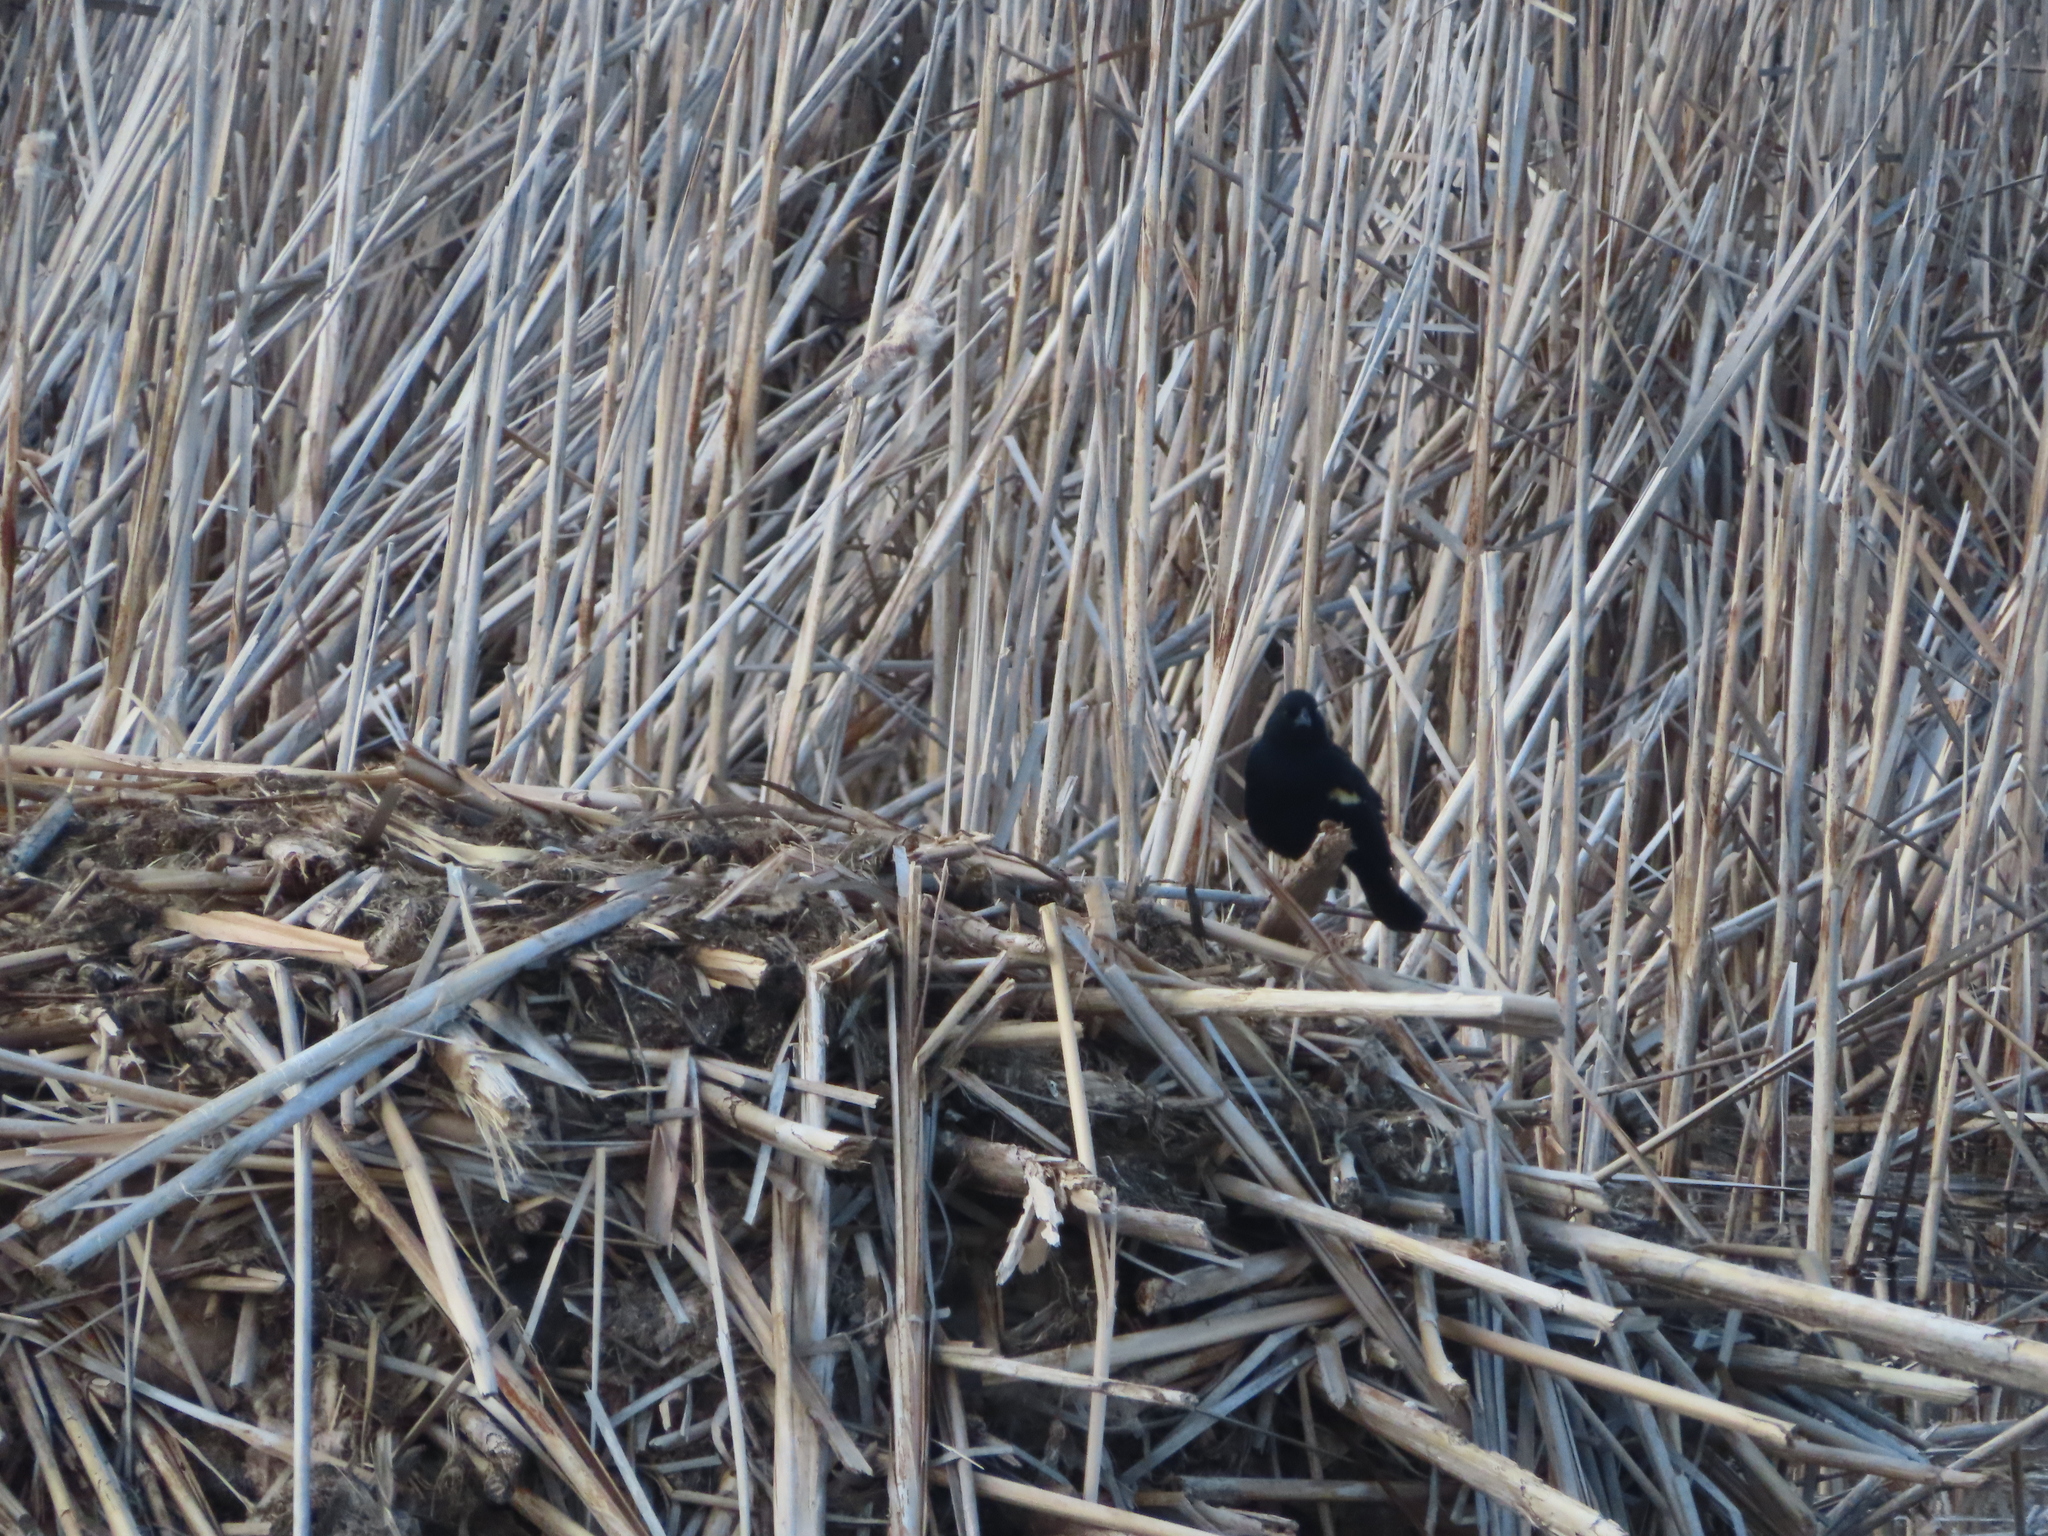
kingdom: Animalia
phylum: Chordata
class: Aves
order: Passeriformes
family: Icteridae
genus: Agelaius
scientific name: Agelaius phoeniceus
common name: Red-winged blackbird
